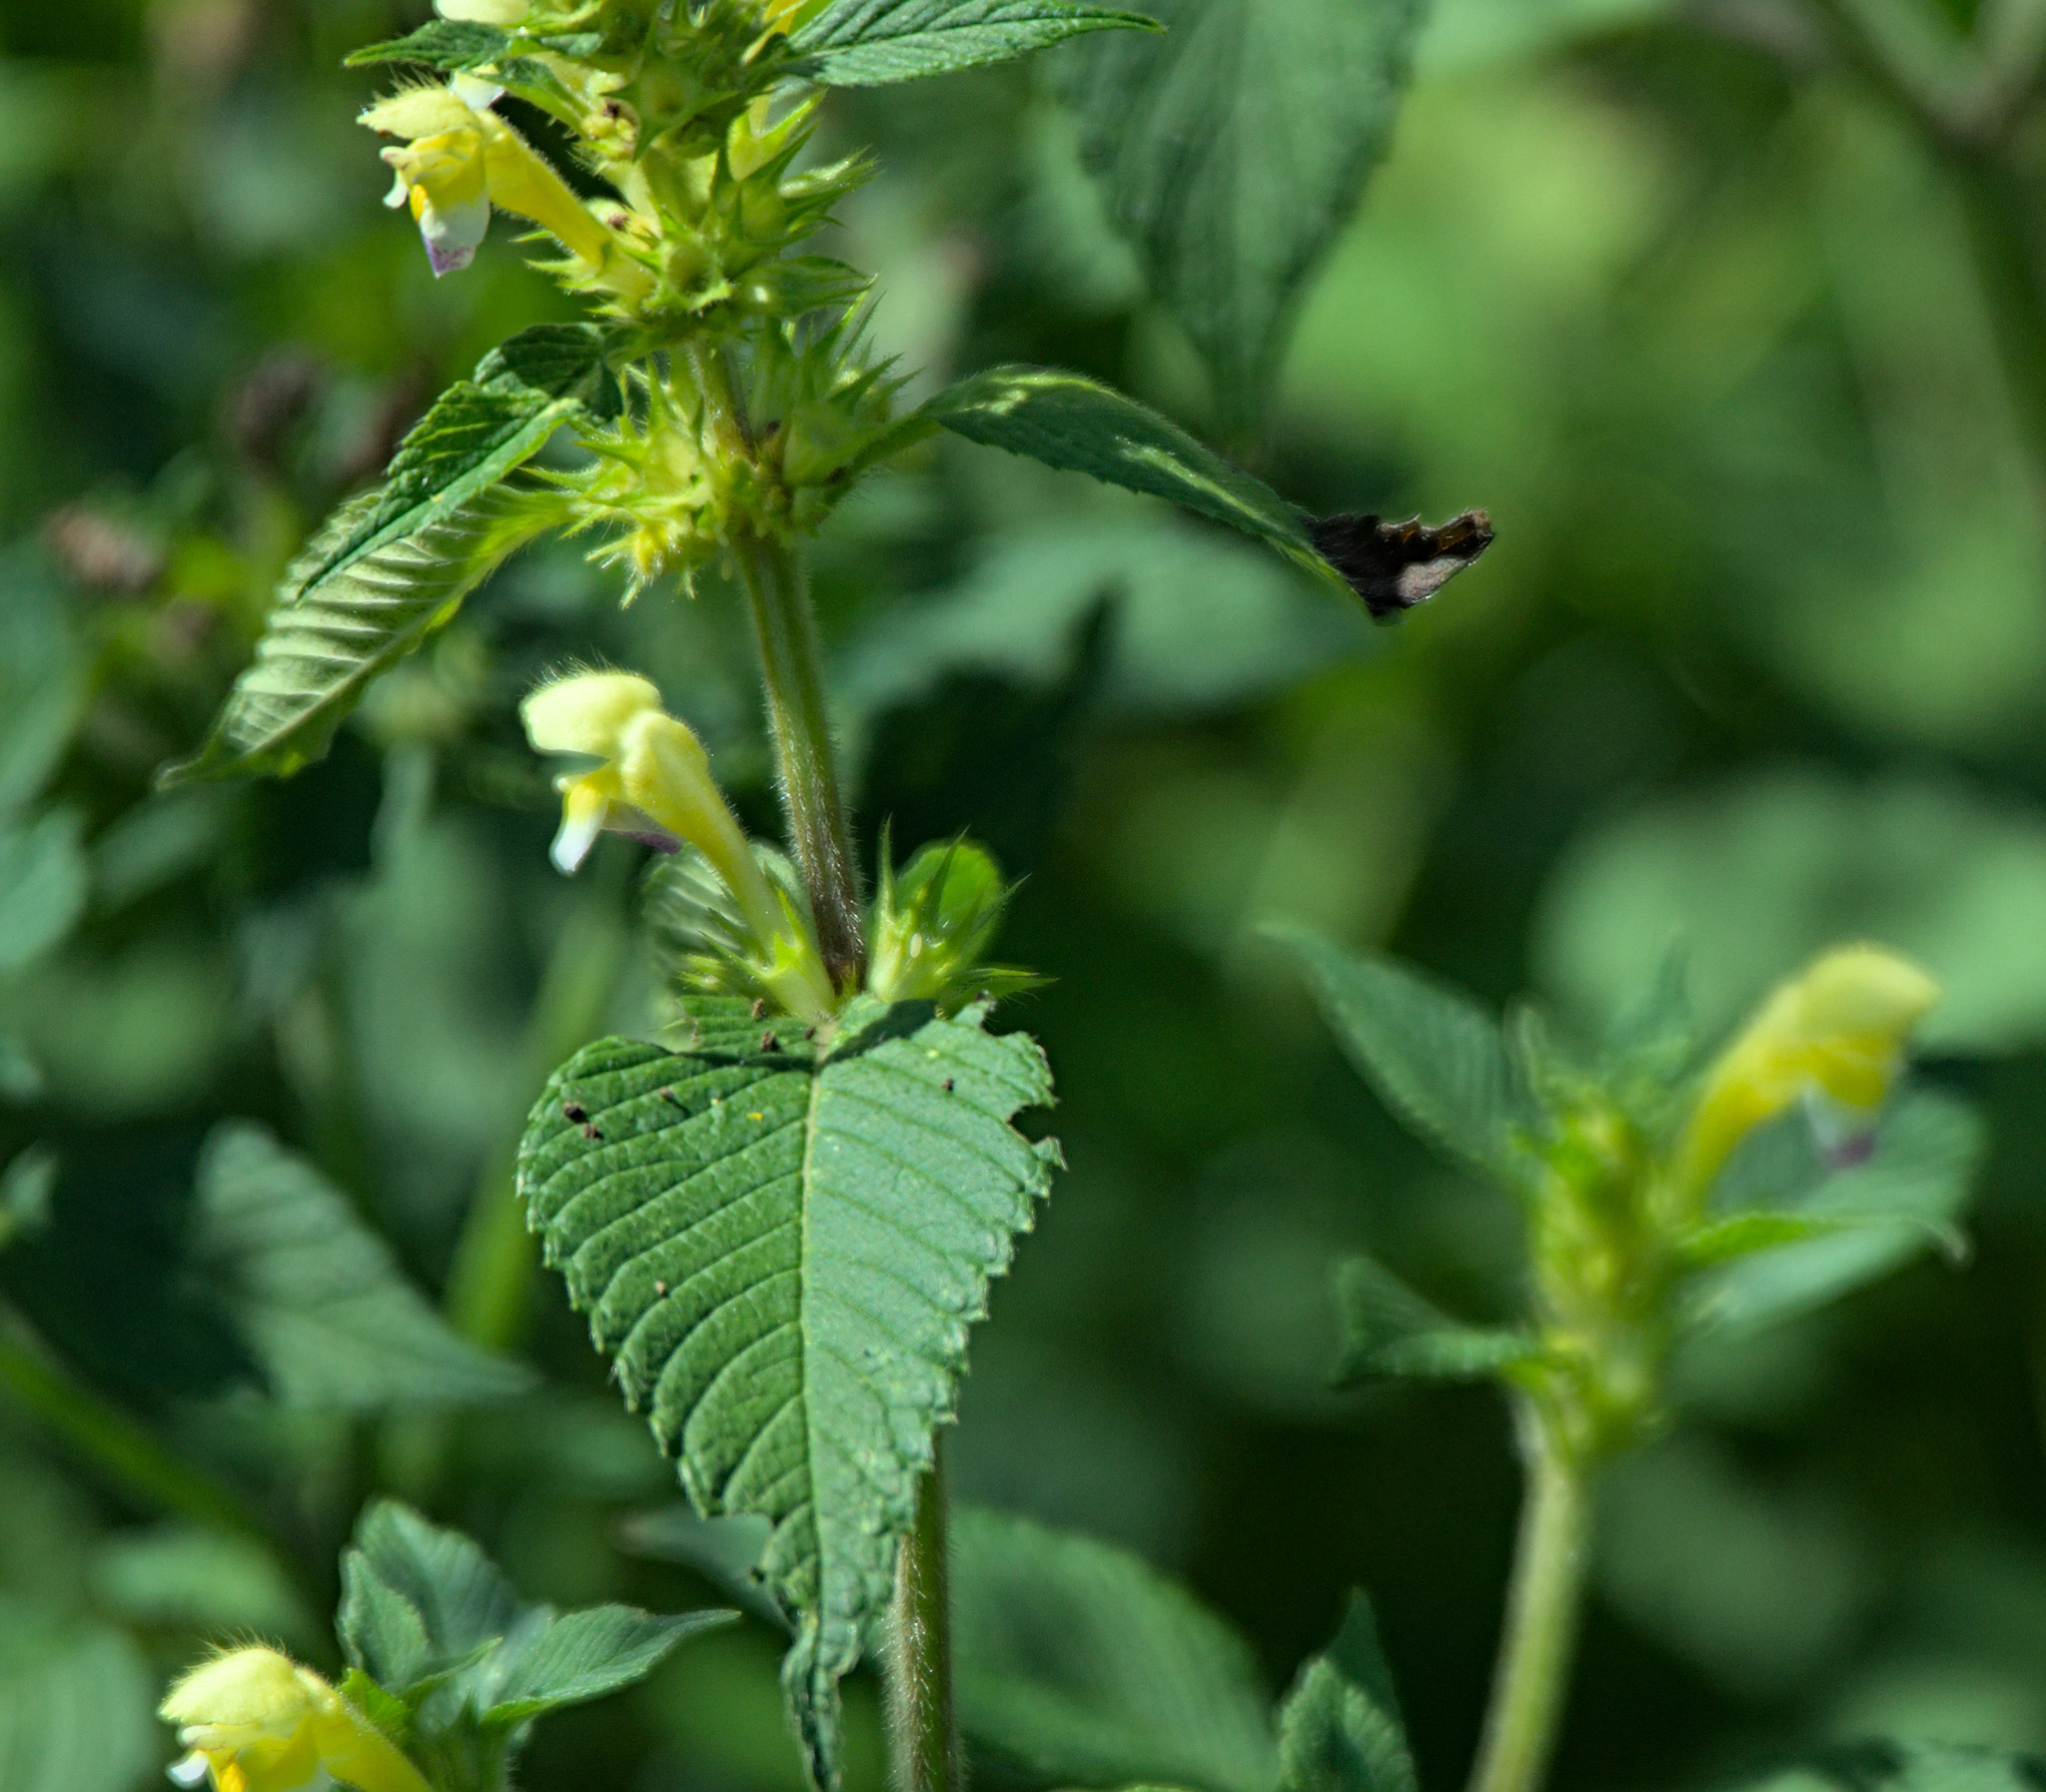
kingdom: Plantae
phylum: Tracheophyta
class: Magnoliopsida
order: Lamiales
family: Lamiaceae
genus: Galeopsis
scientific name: Galeopsis speciosa
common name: Large-flowered hemp-nettle
